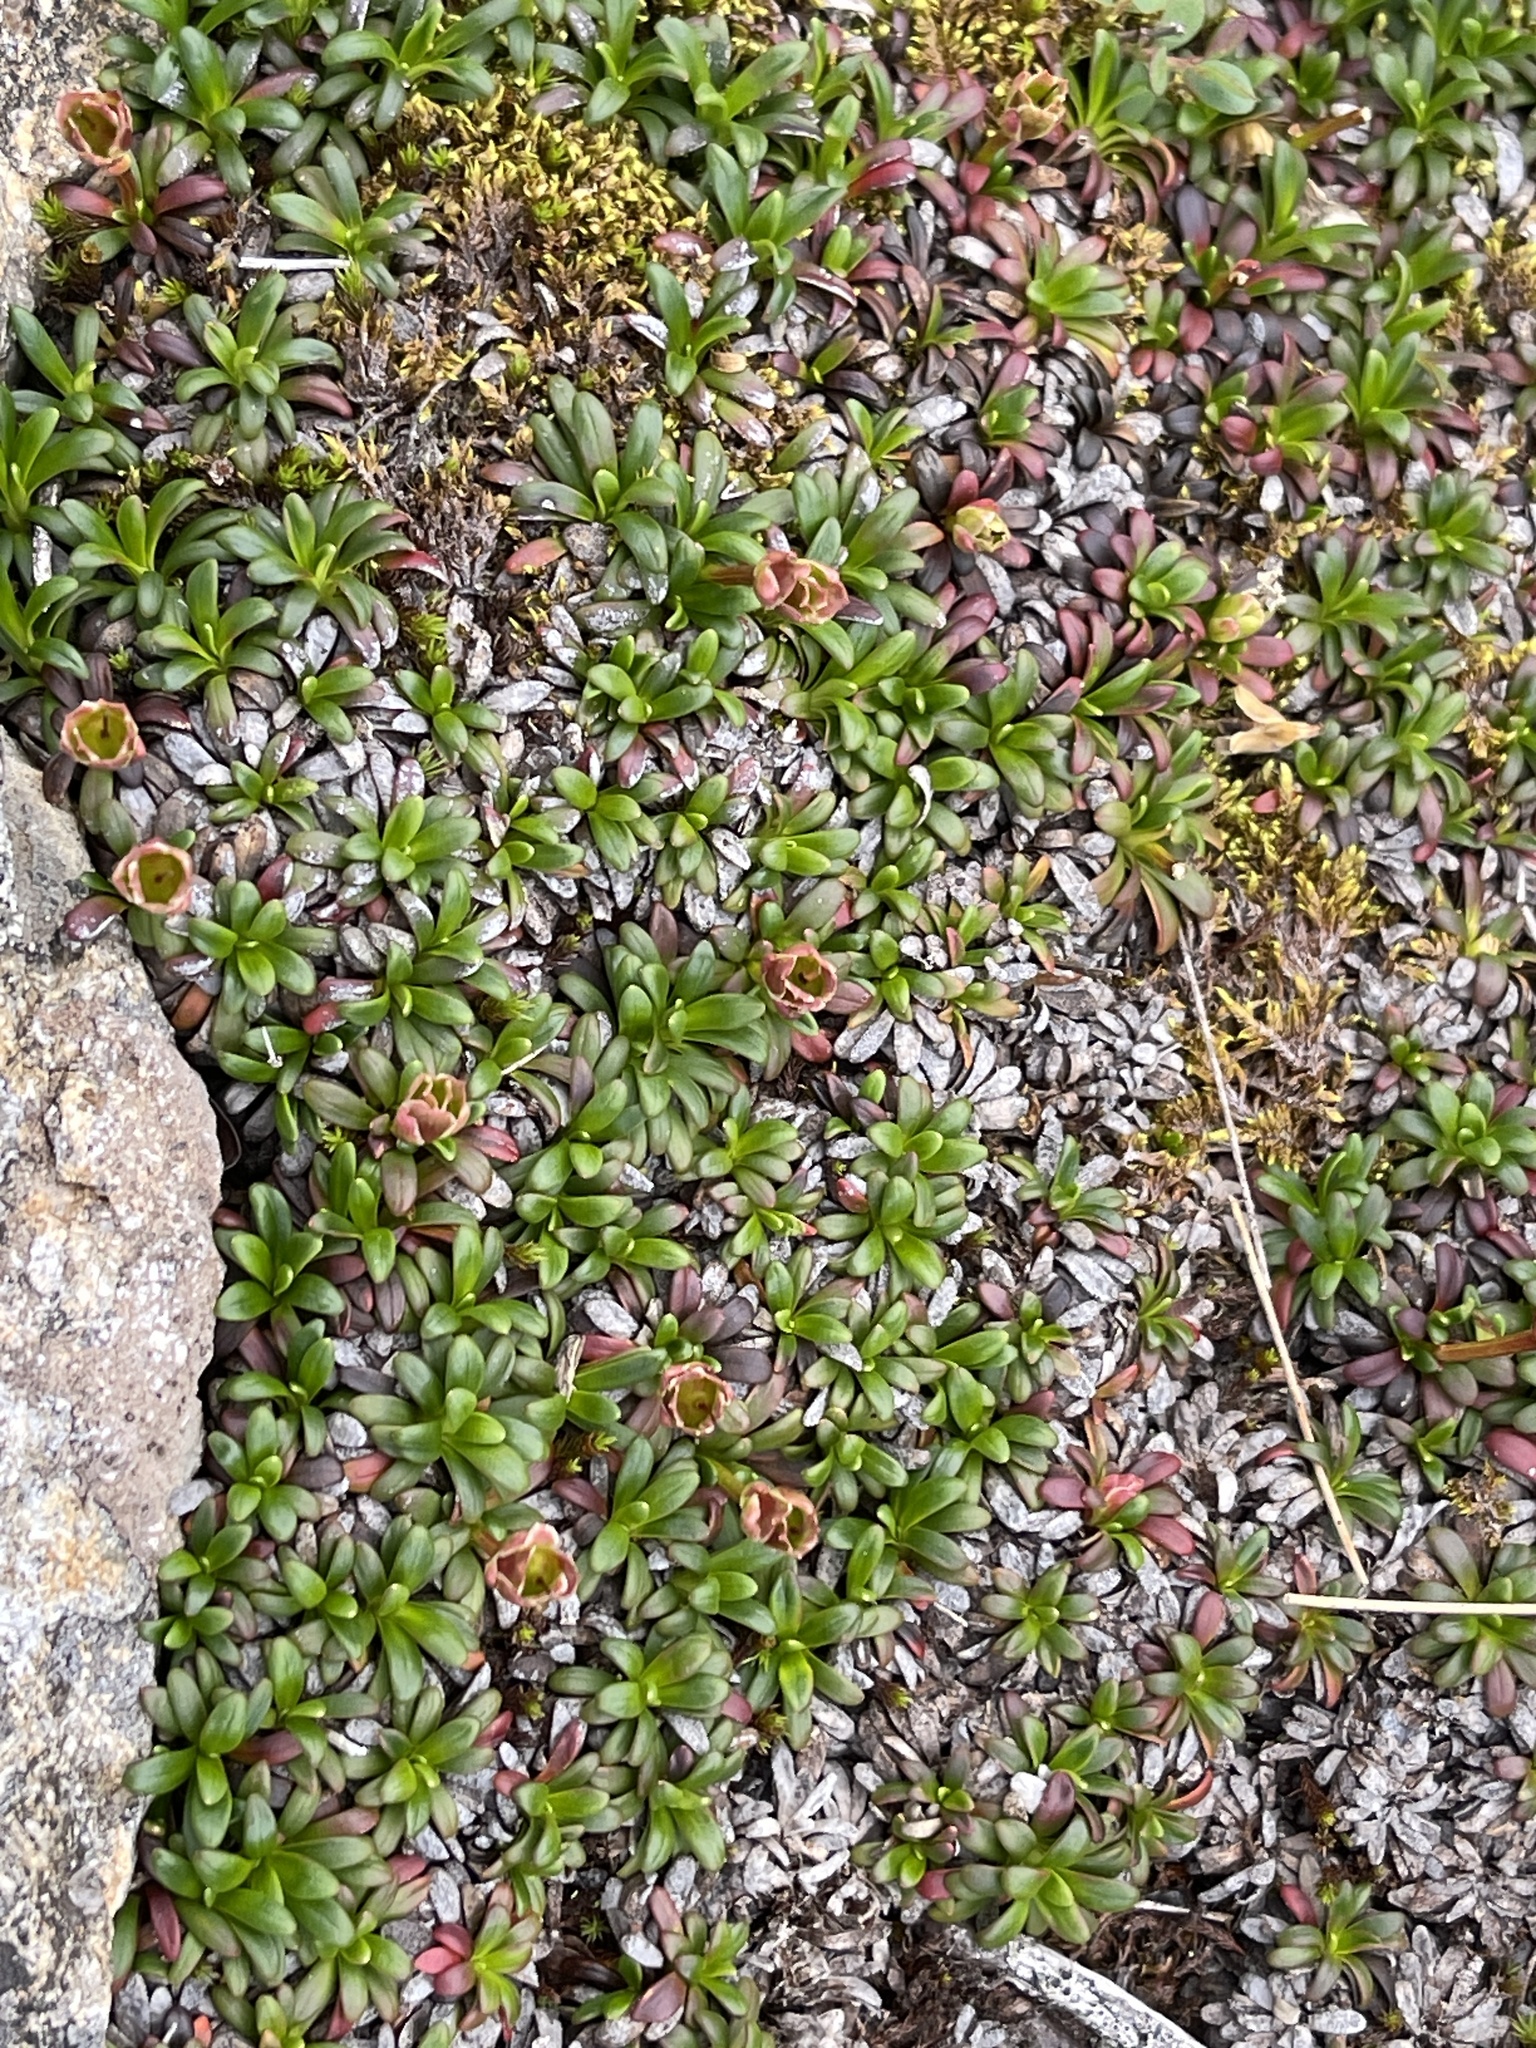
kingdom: Plantae
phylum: Tracheophyta
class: Magnoliopsida
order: Ericales
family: Diapensiaceae
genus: Diapensia
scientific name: Diapensia lapponica
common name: Diapensia
